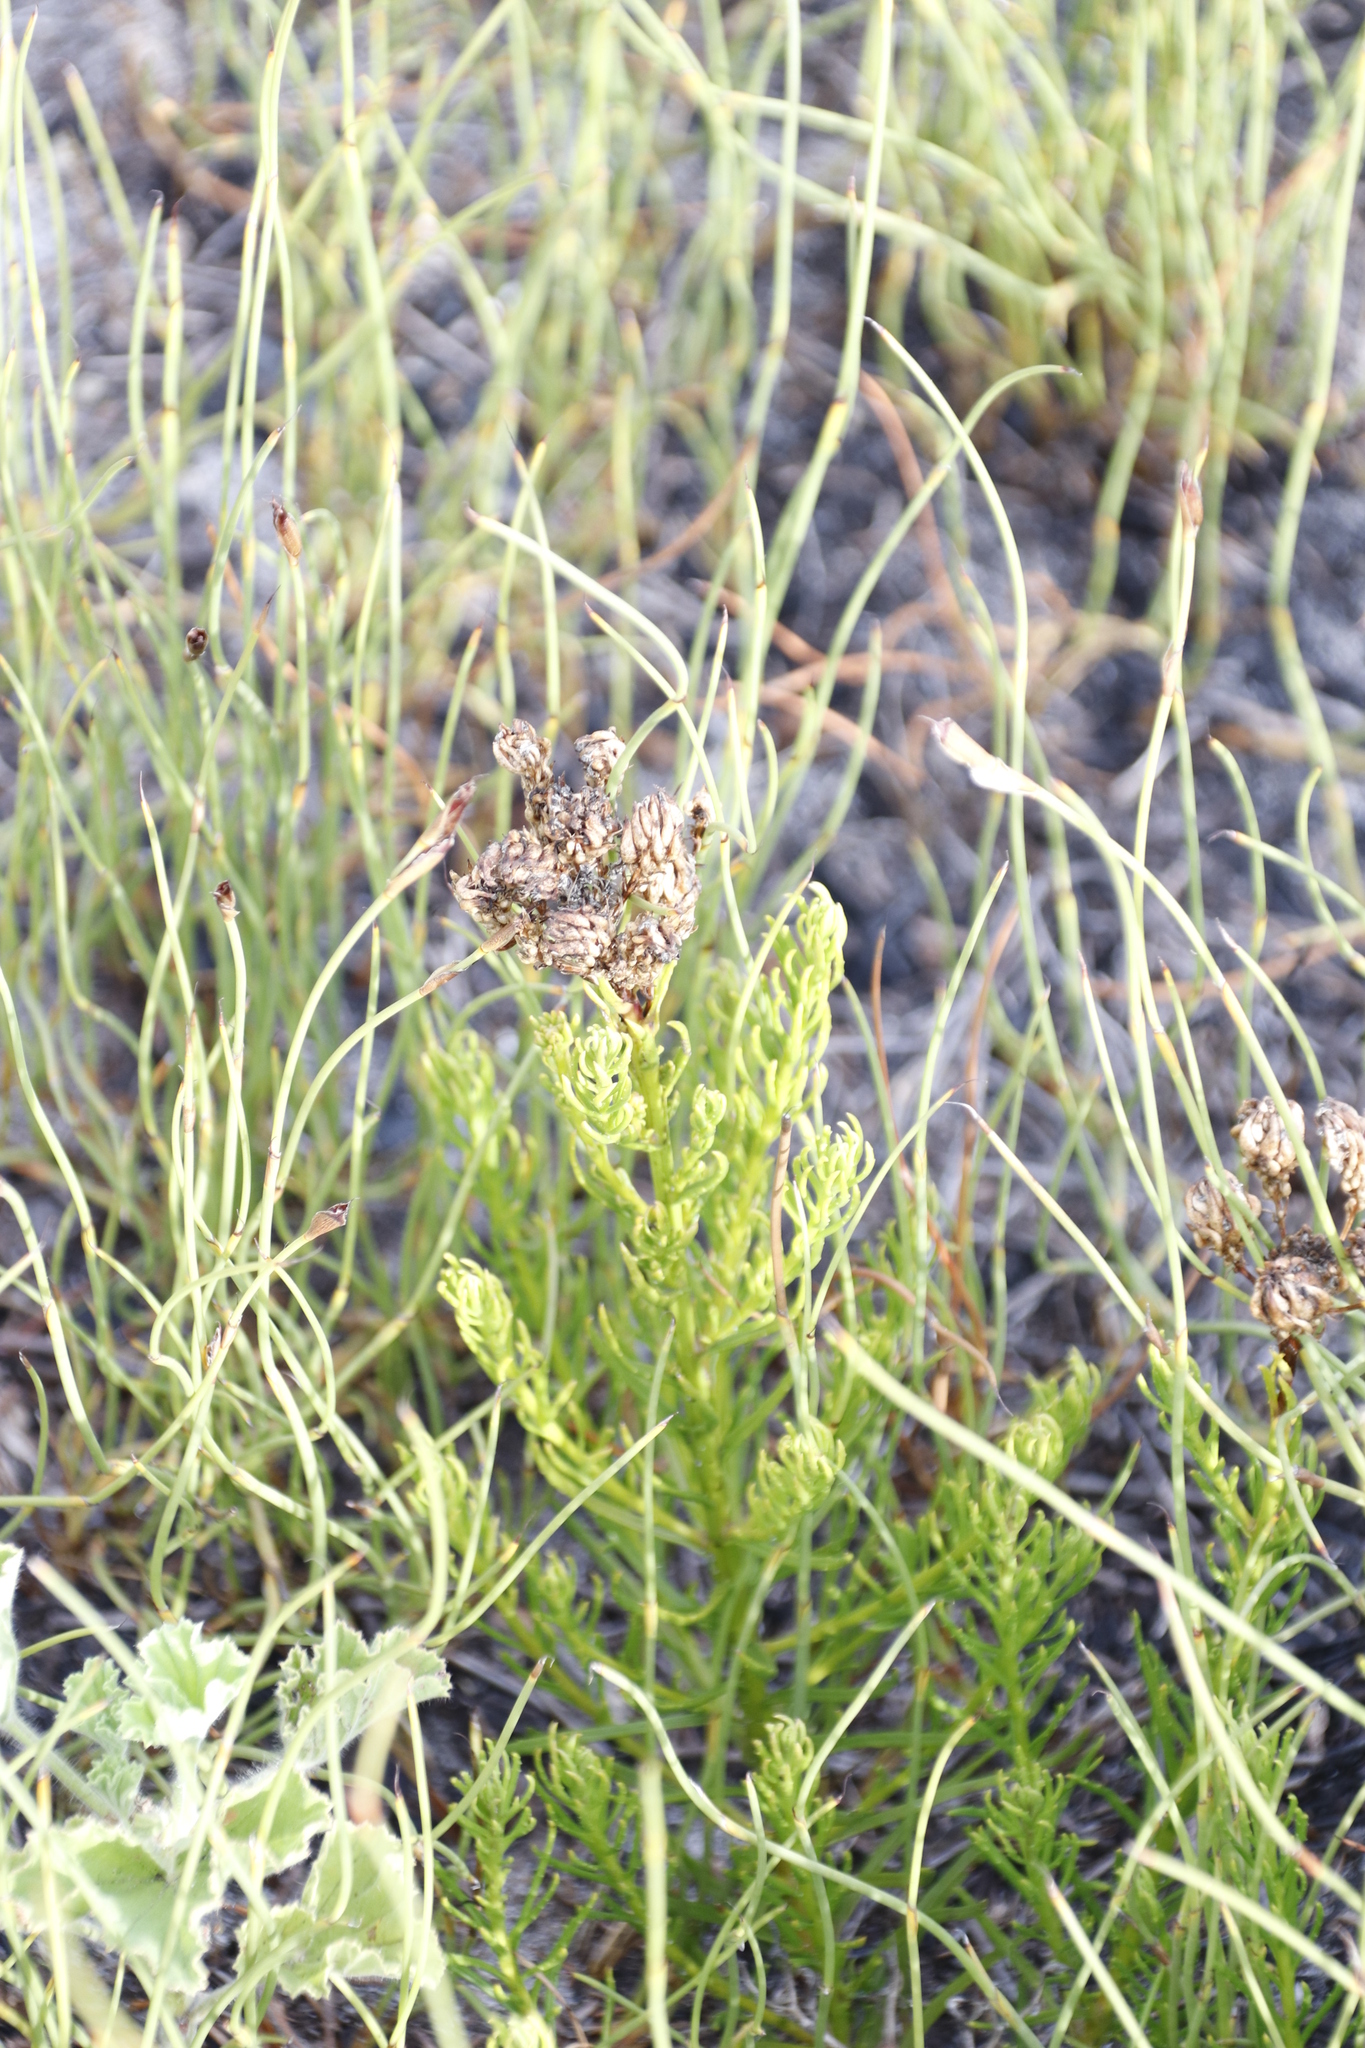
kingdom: Plantae
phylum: Tracheophyta
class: Magnoliopsida
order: Lamiales
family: Scrophulariaceae
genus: Pseudoselago
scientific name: Pseudoselago spuria
